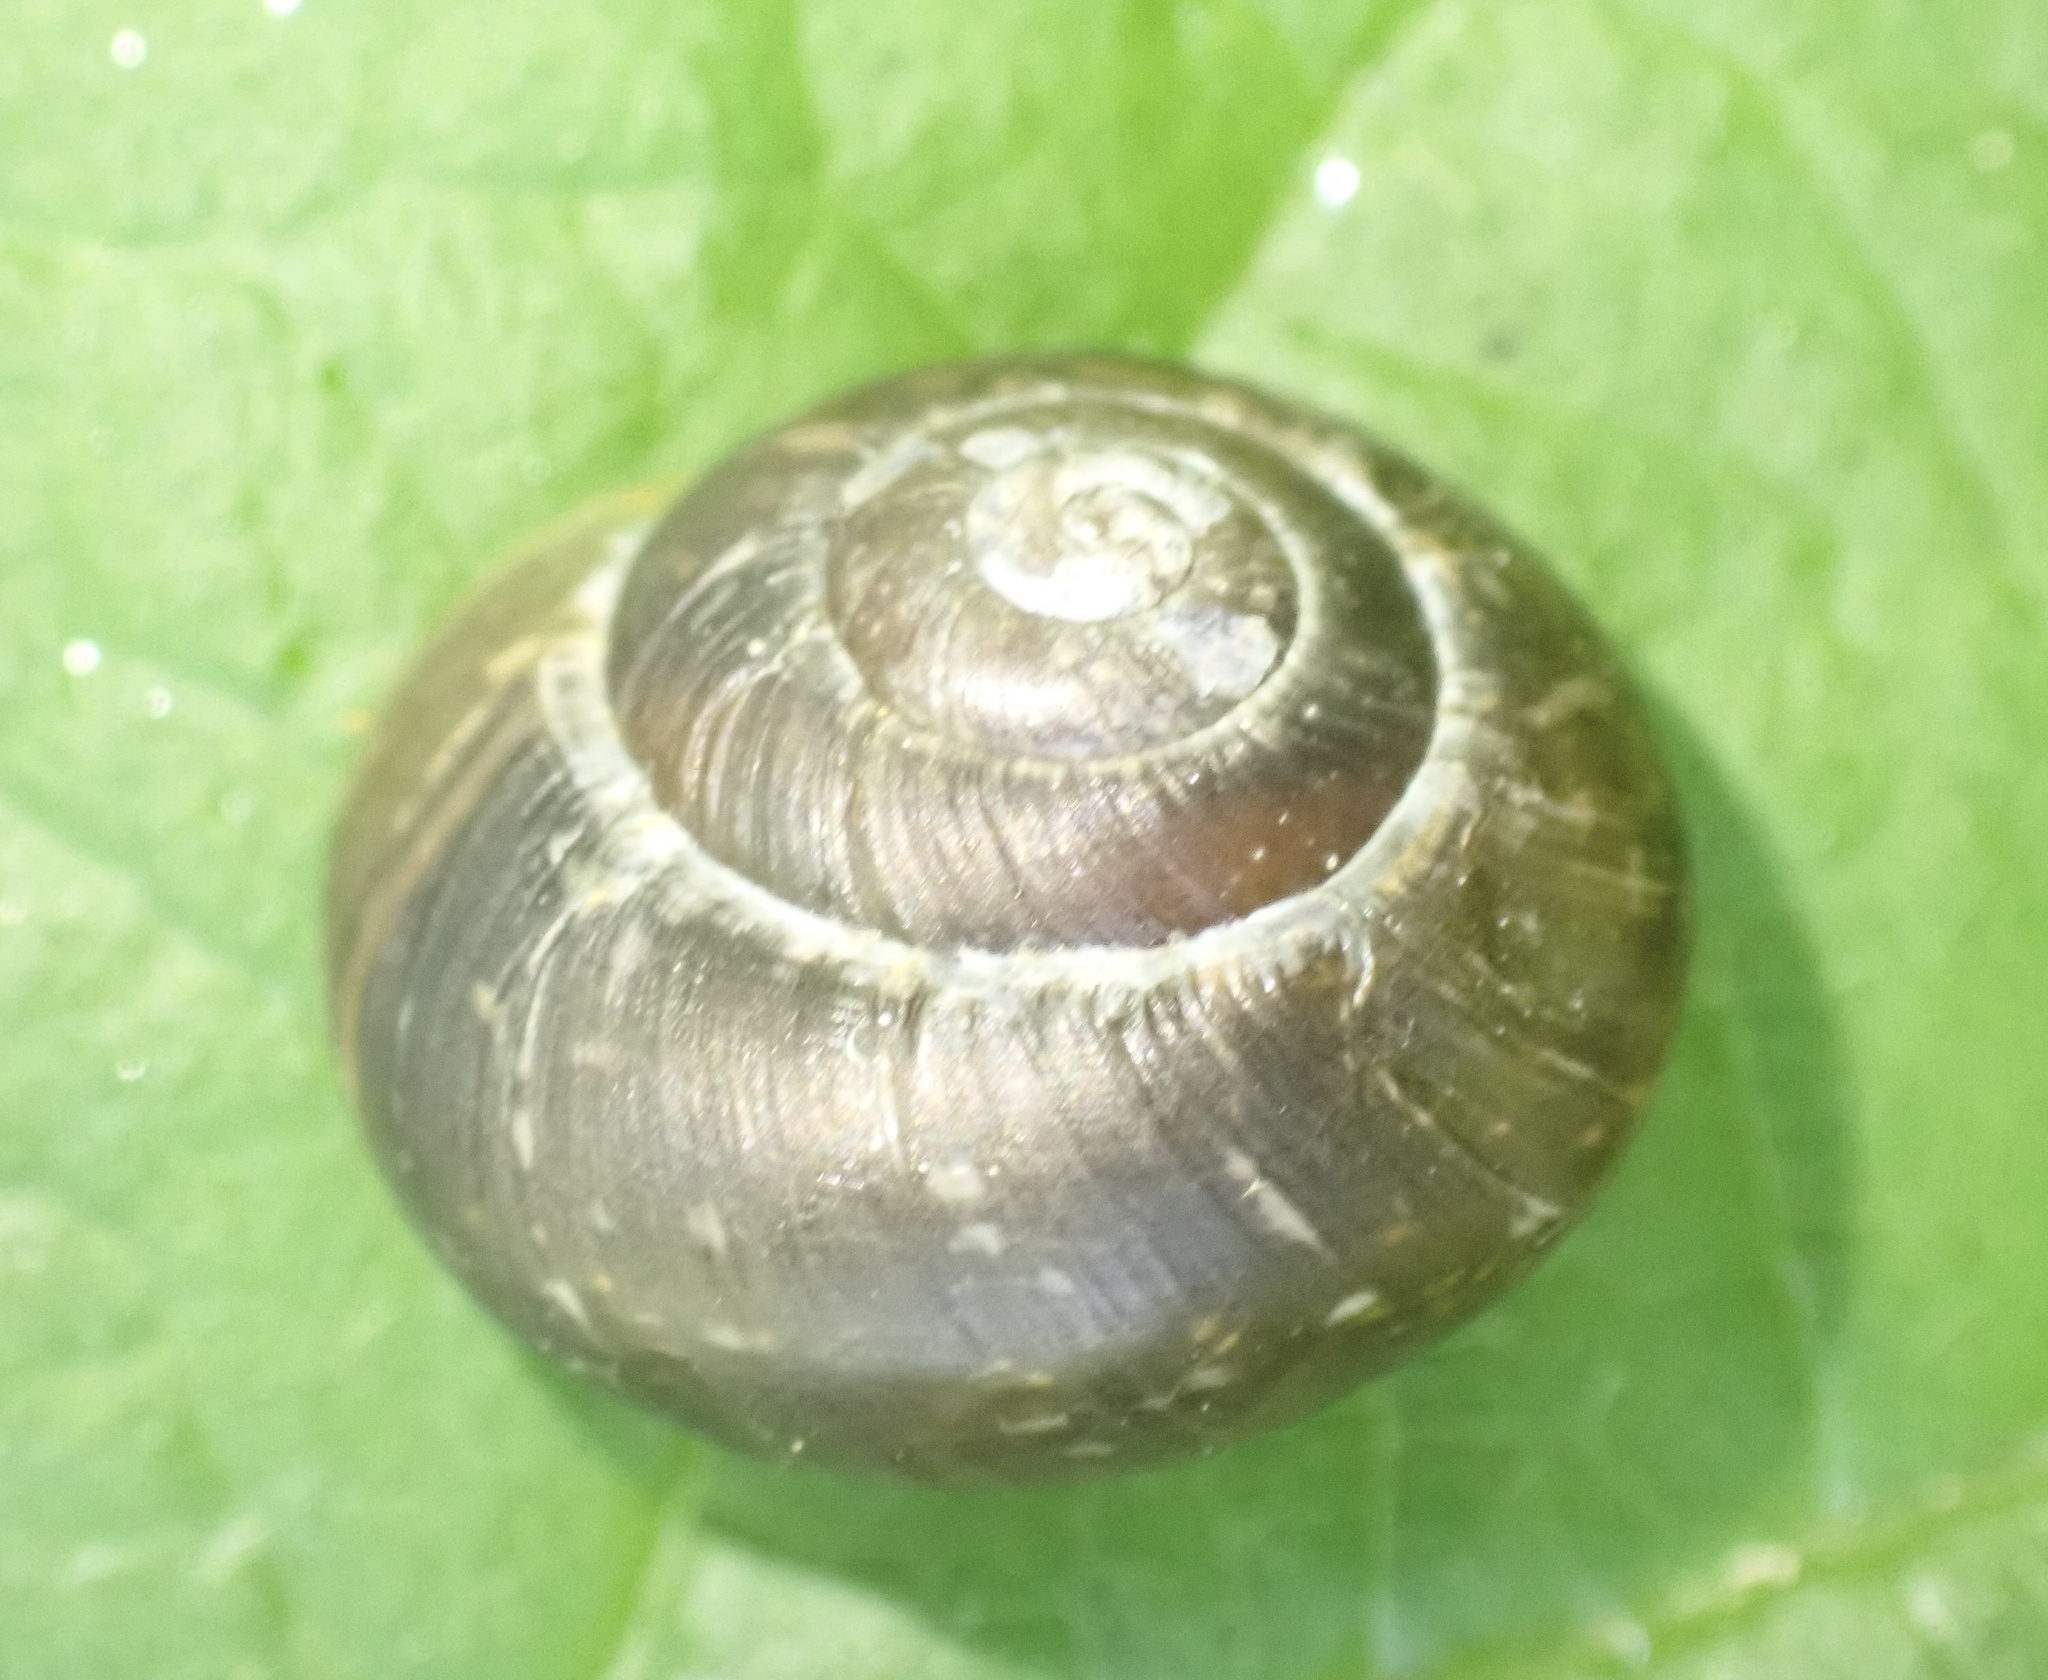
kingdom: Animalia
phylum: Mollusca
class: Gastropoda
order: Stylommatophora
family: Helicidae
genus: Arianta
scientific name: Arianta arbustorum
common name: Copse snail
